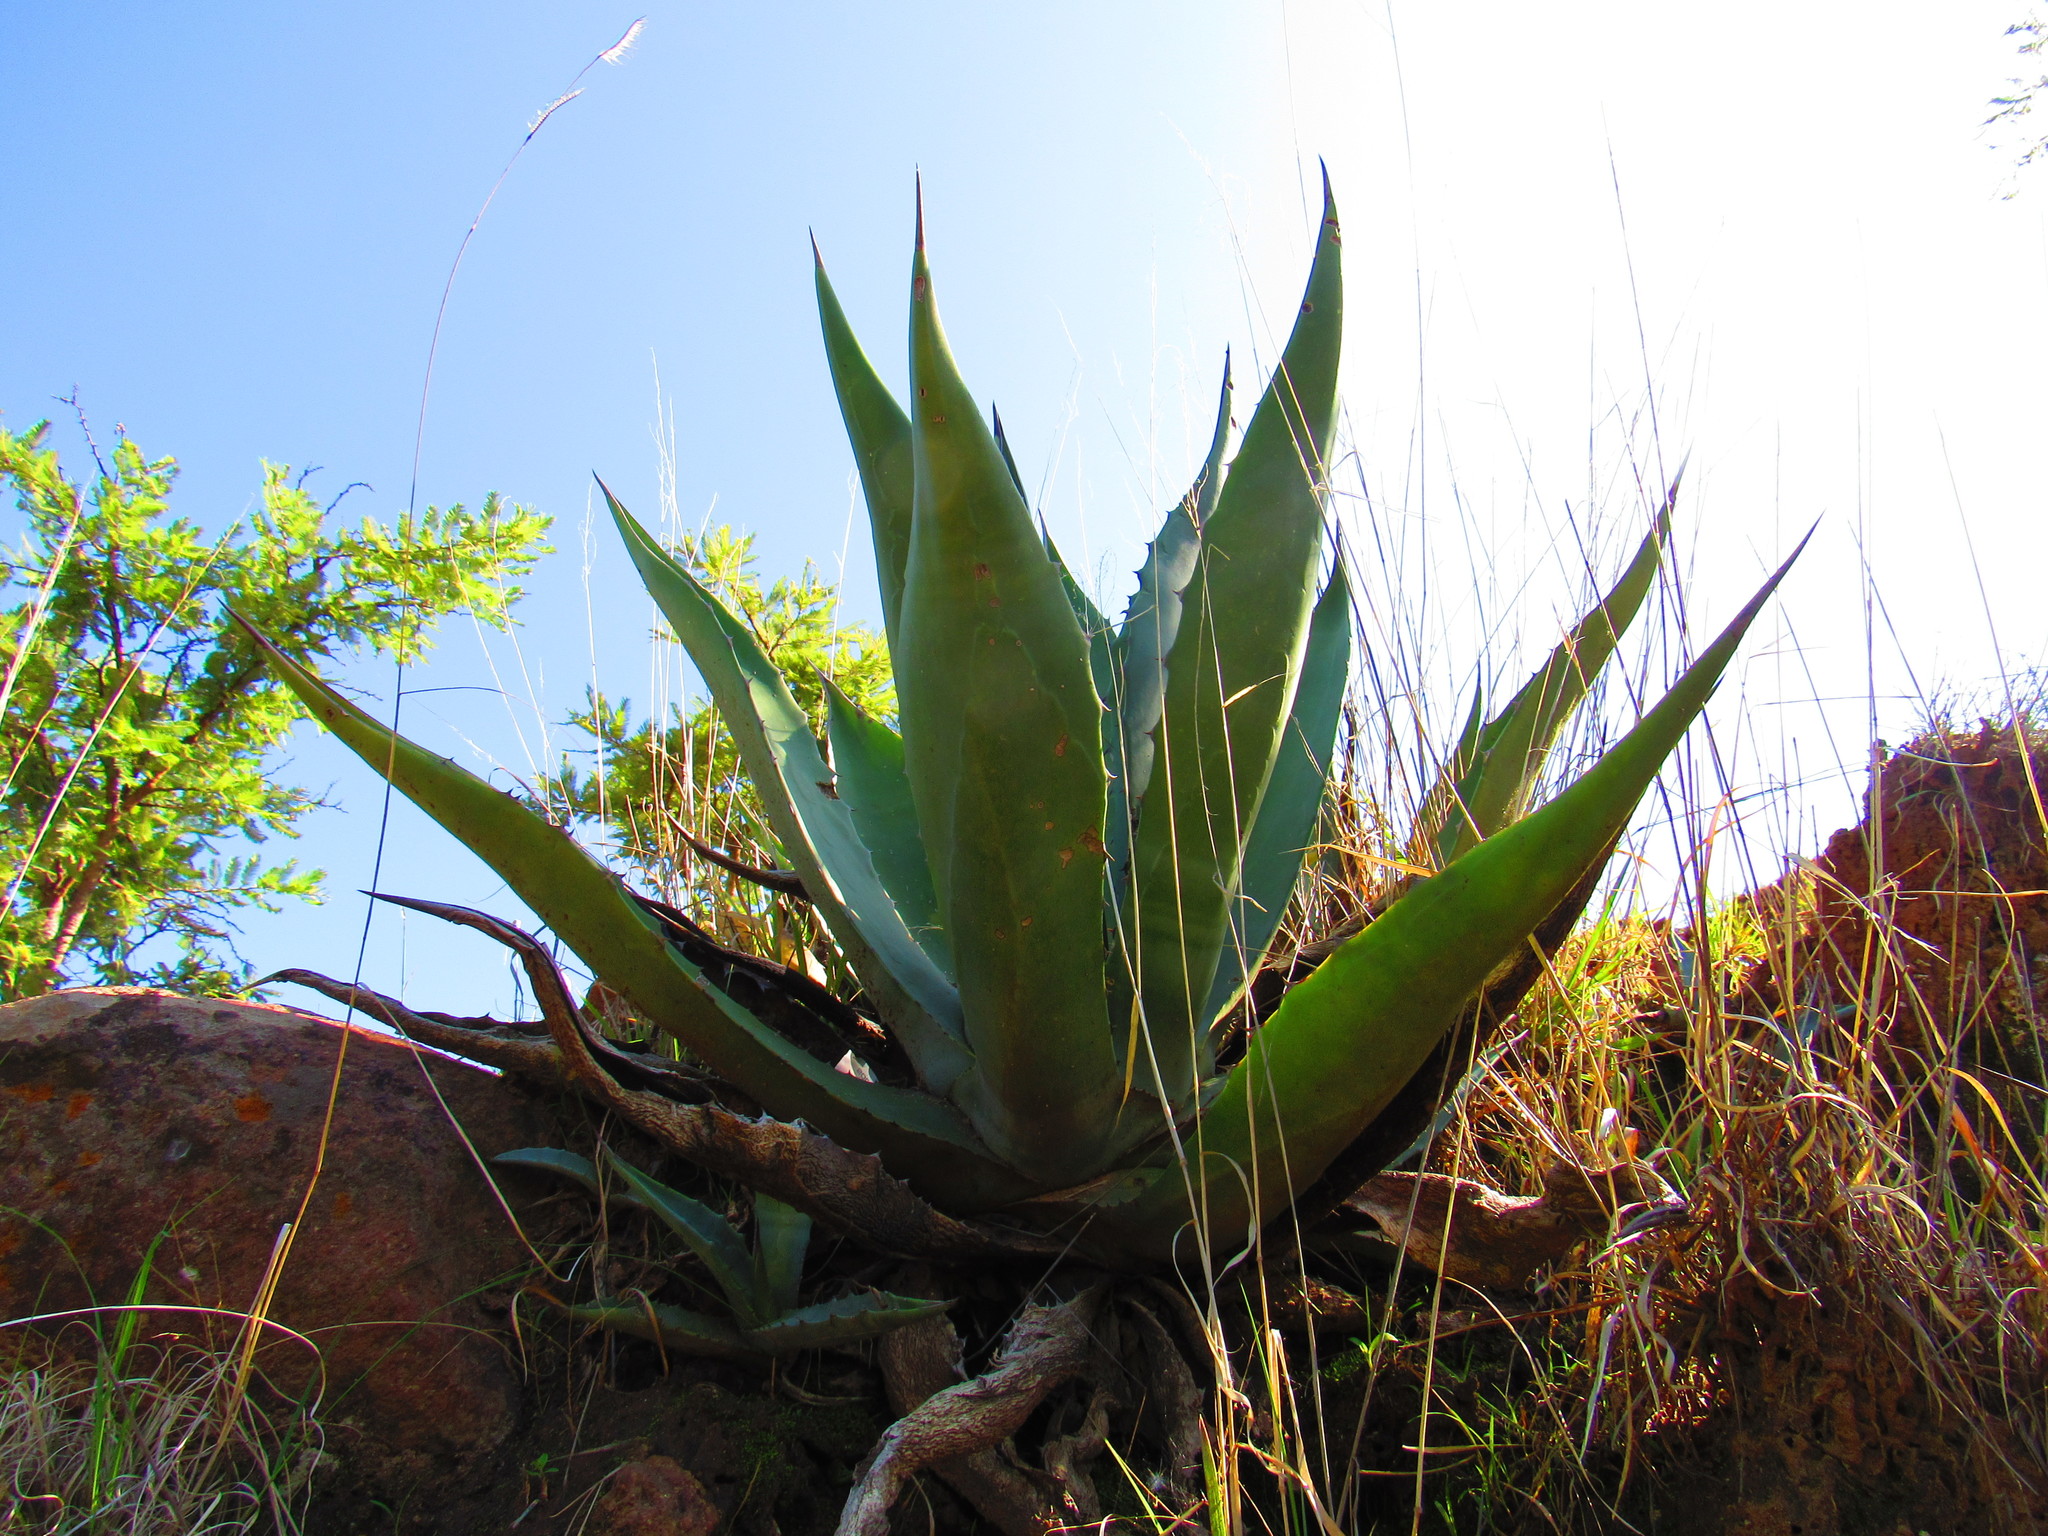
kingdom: Plantae
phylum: Tracheophyta
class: Liliopsida
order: Asparagales
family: Asparagaceae
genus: Agave
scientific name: Agave salmiana
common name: Pulque agave
